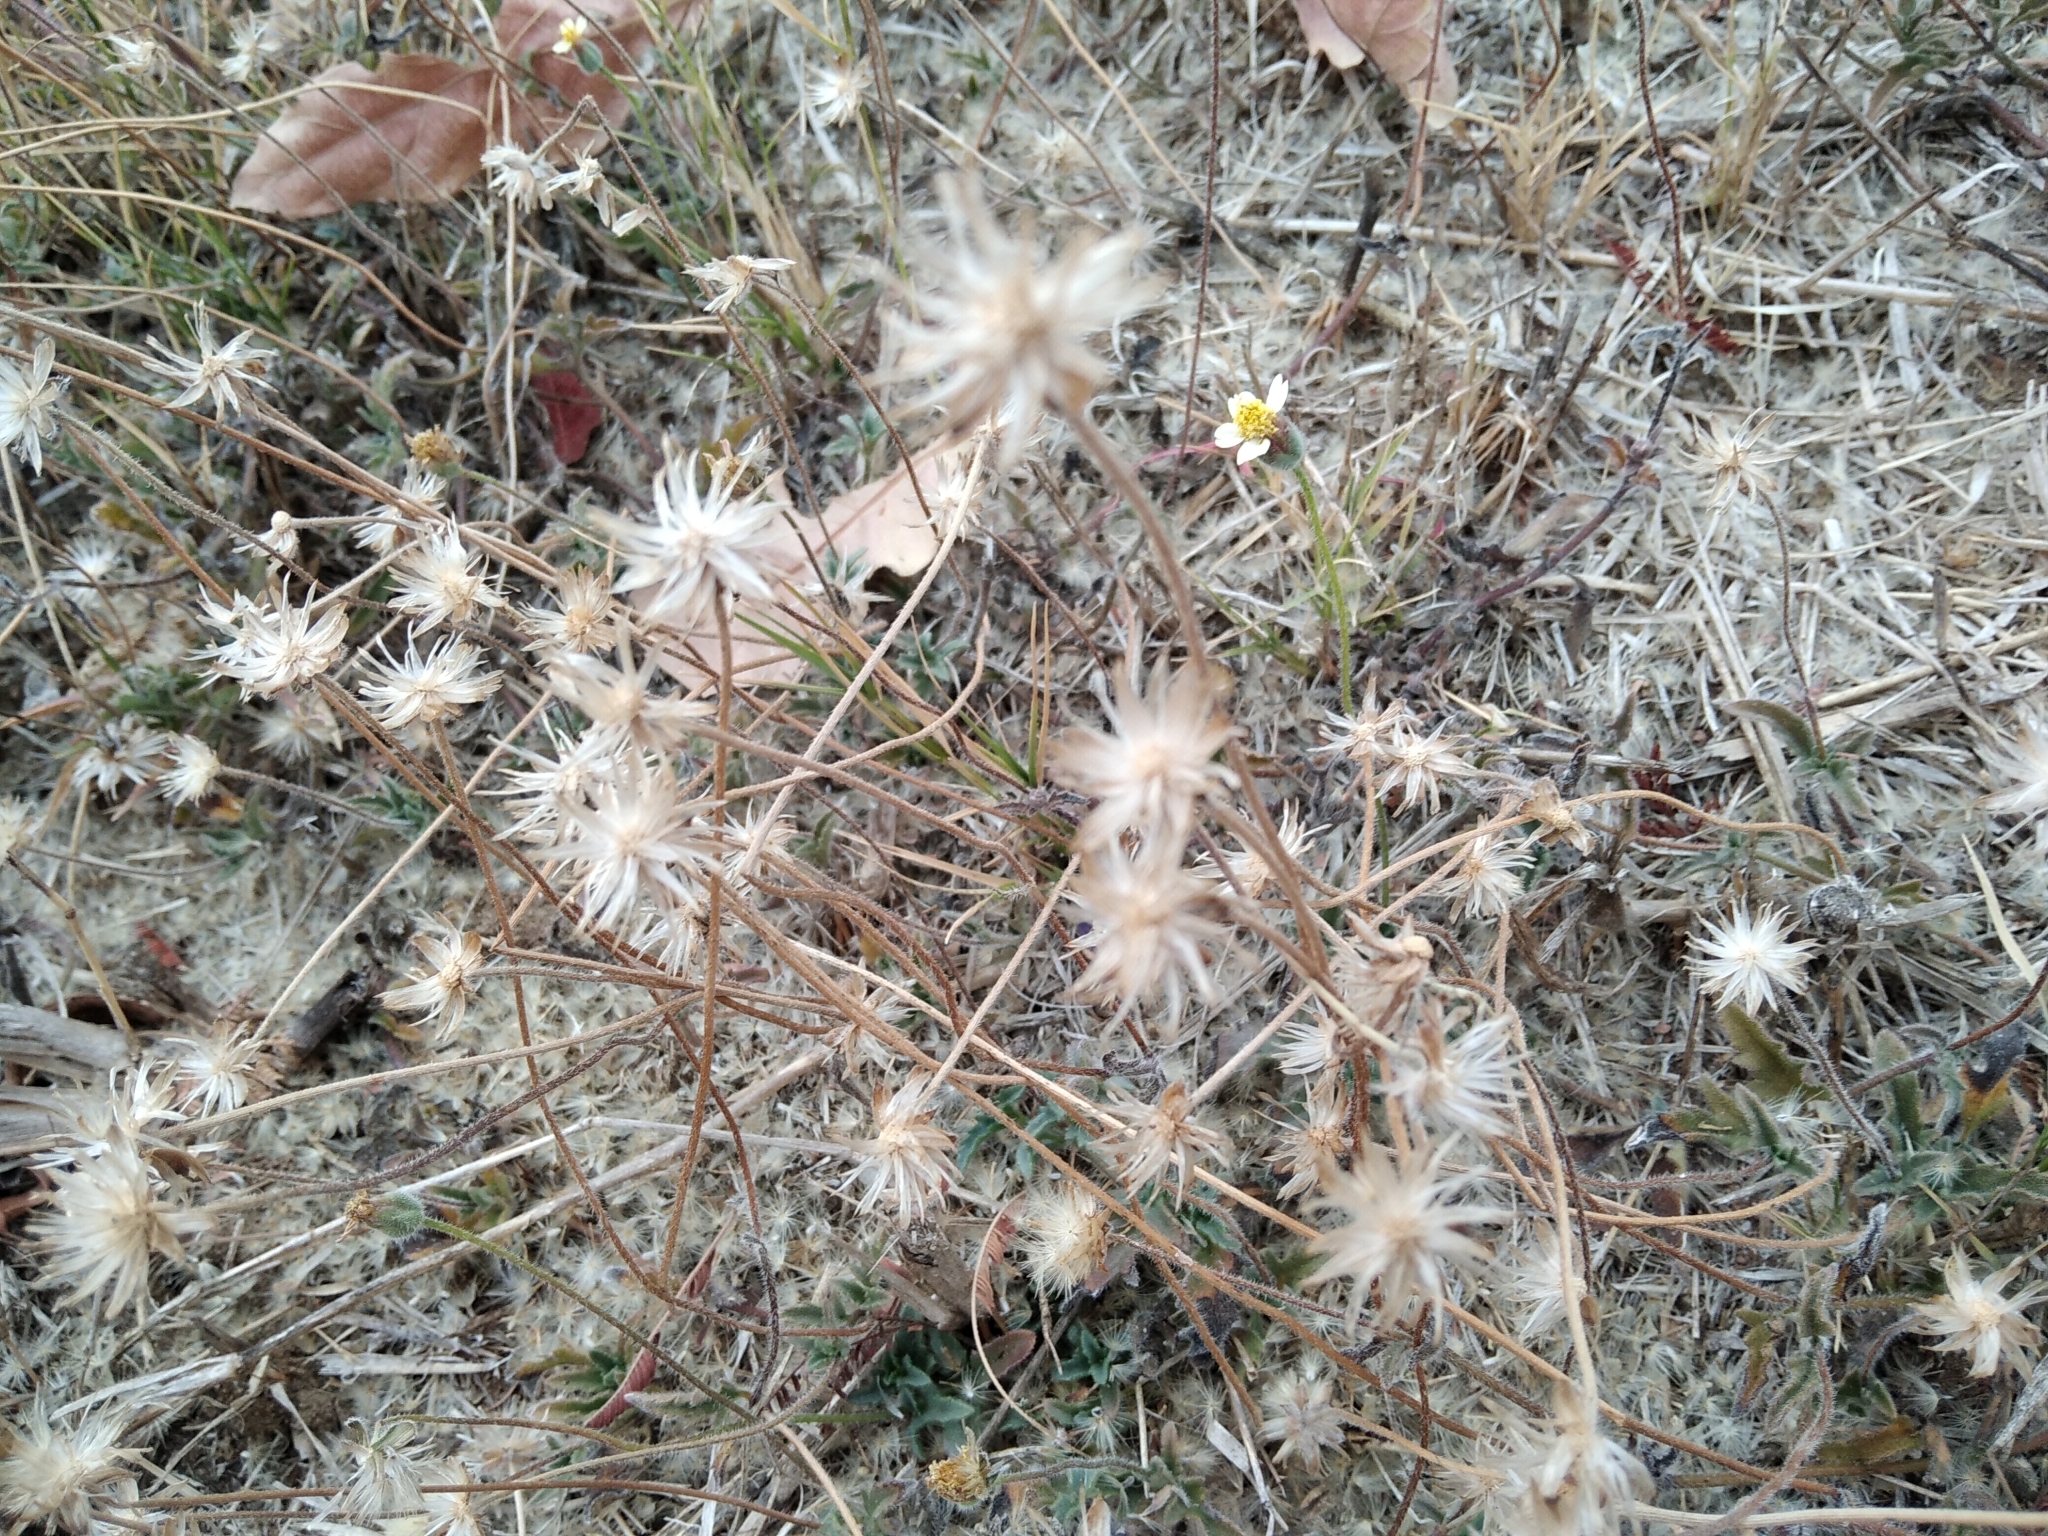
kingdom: Plantae
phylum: Tracheophyta
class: Magnoliopsida
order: Asterales
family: Asteraceae
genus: Tridax
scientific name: Tridax procumbens
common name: Coatbuttons
